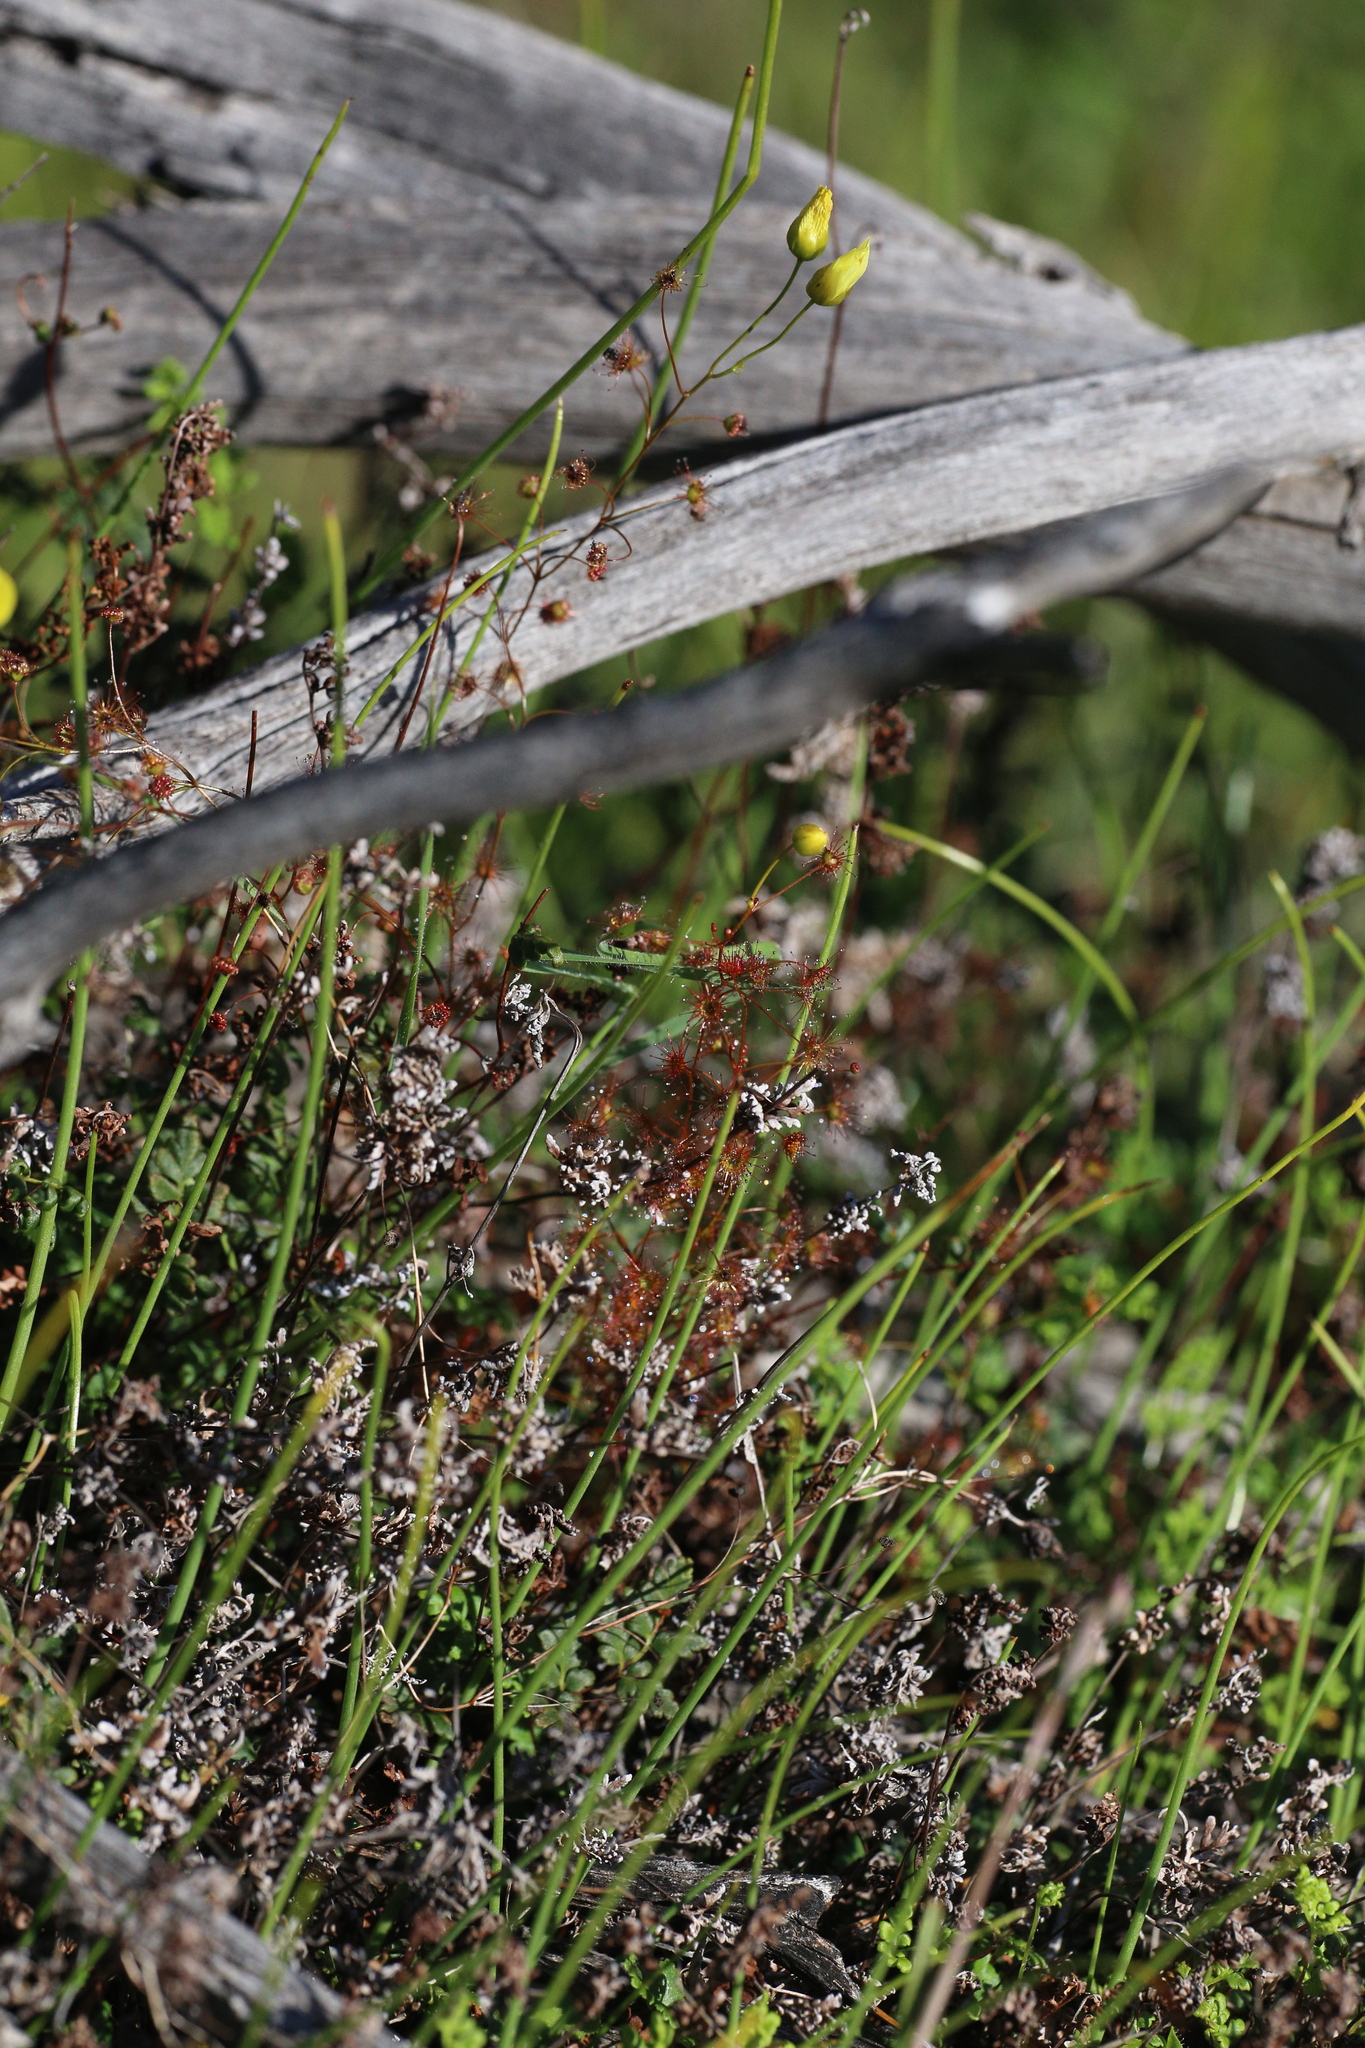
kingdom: Plantae
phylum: Tracheophyta
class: Magnoliopsida
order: Caryophyllales
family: Droseraceae
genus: Drosera
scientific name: Drosera moorei
